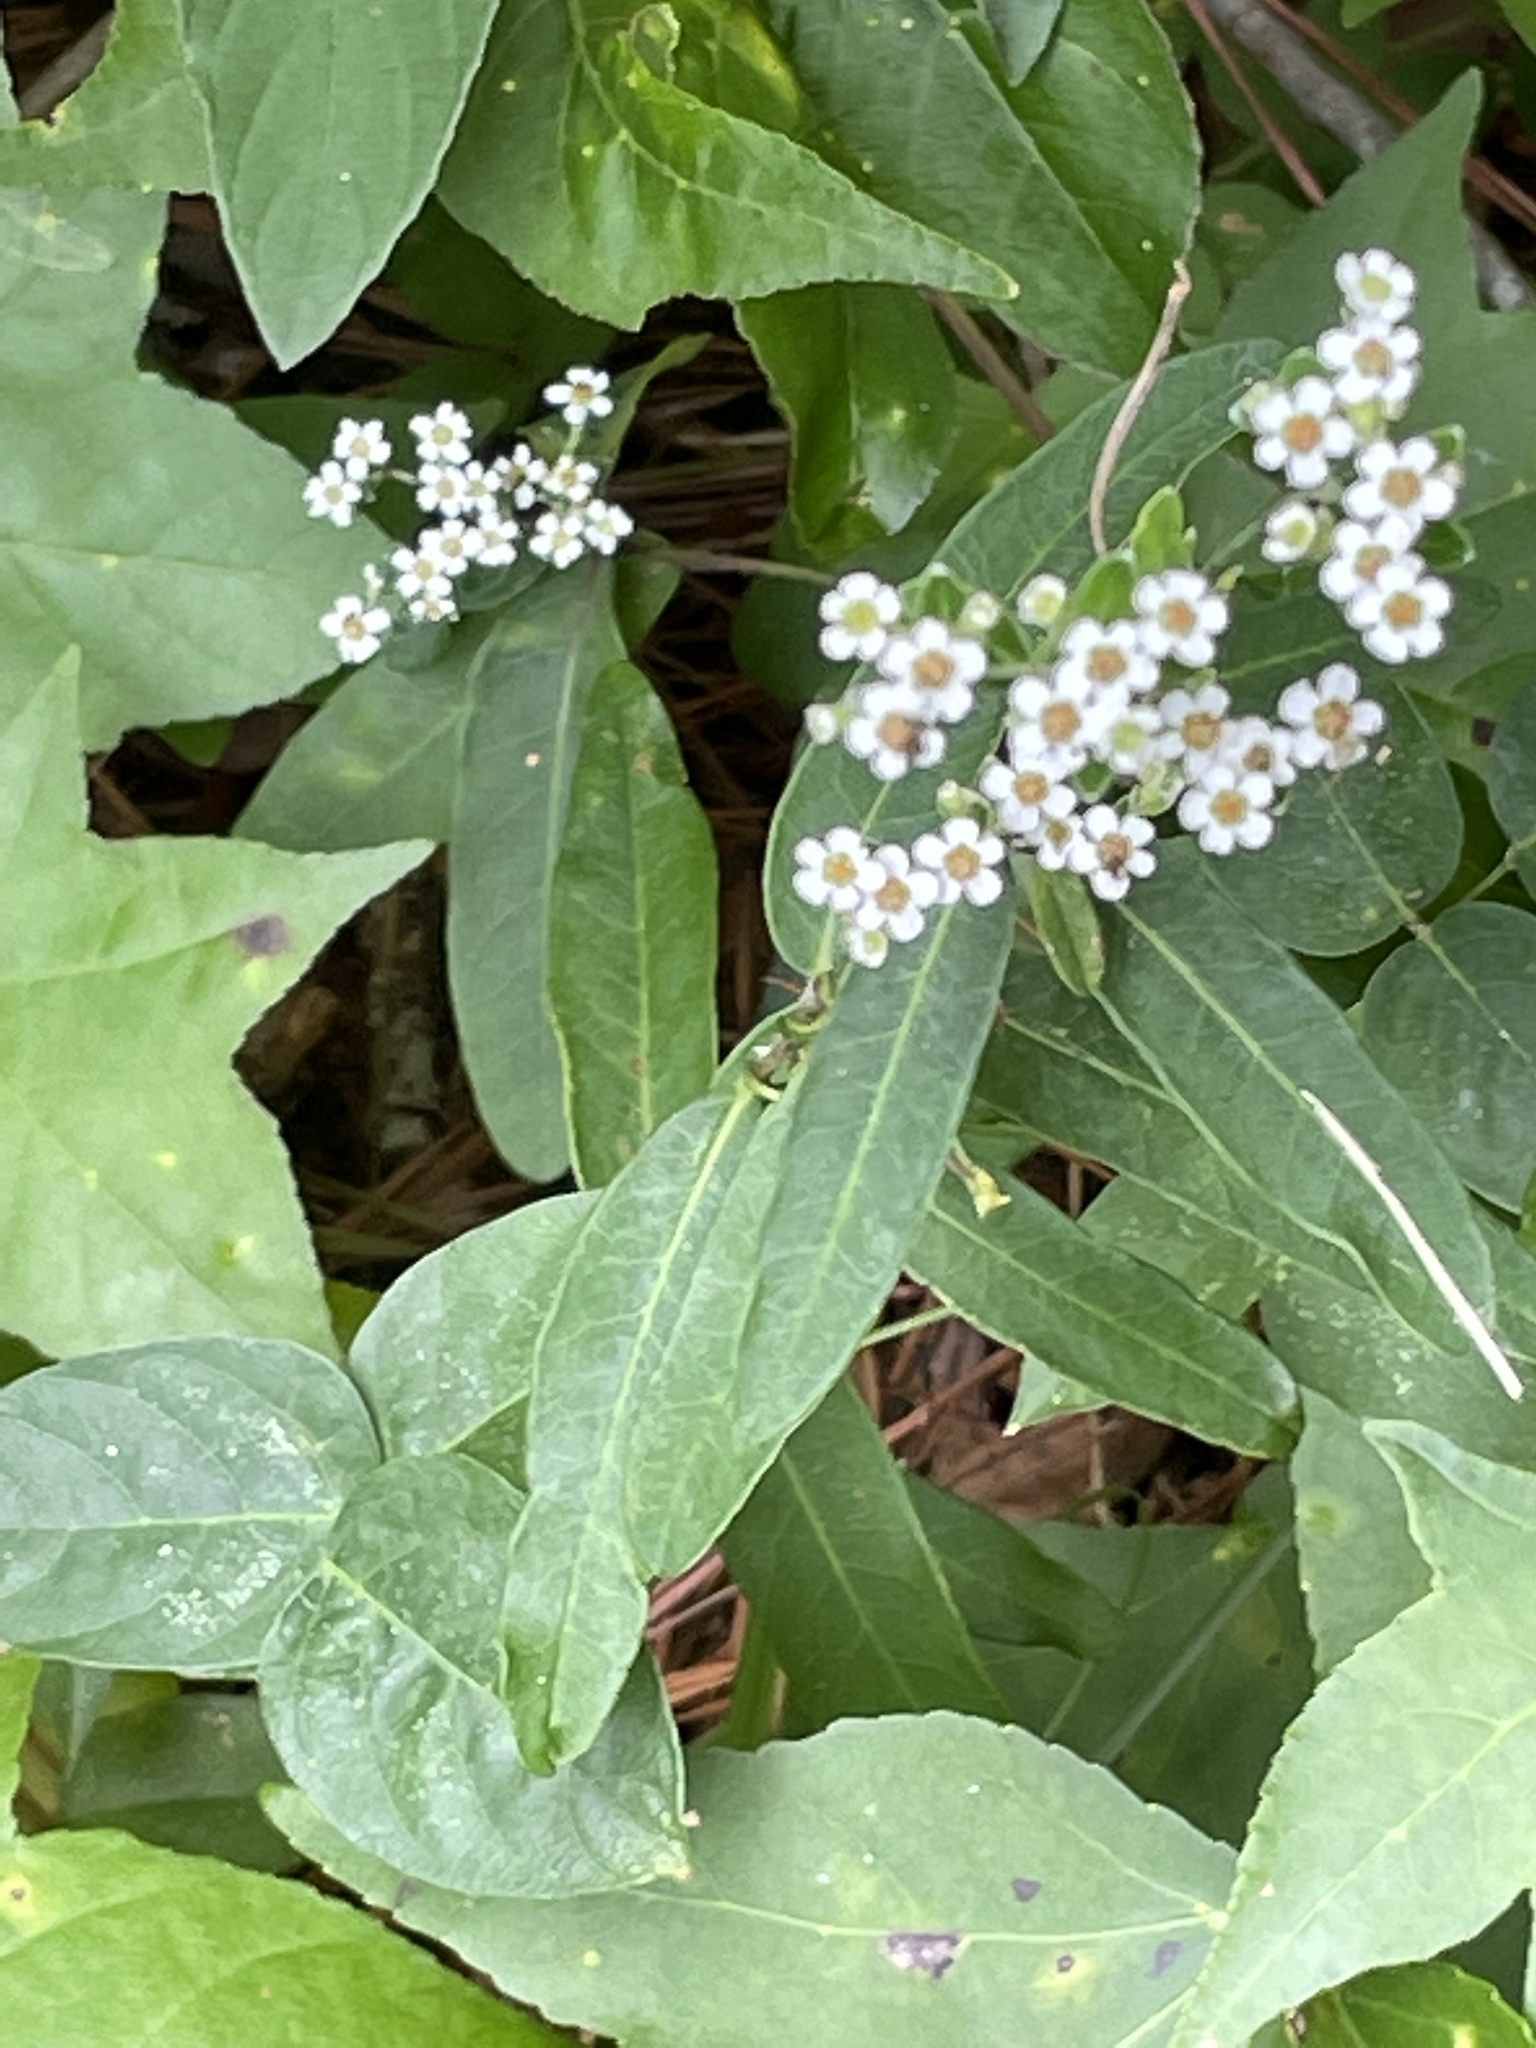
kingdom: Plantae
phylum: Tracheophyta
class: Magnoliopsida
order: Malpighiales
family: Euphorbiaceae
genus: Euphorbia
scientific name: Euphorbia corollata
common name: Flowering spurge
